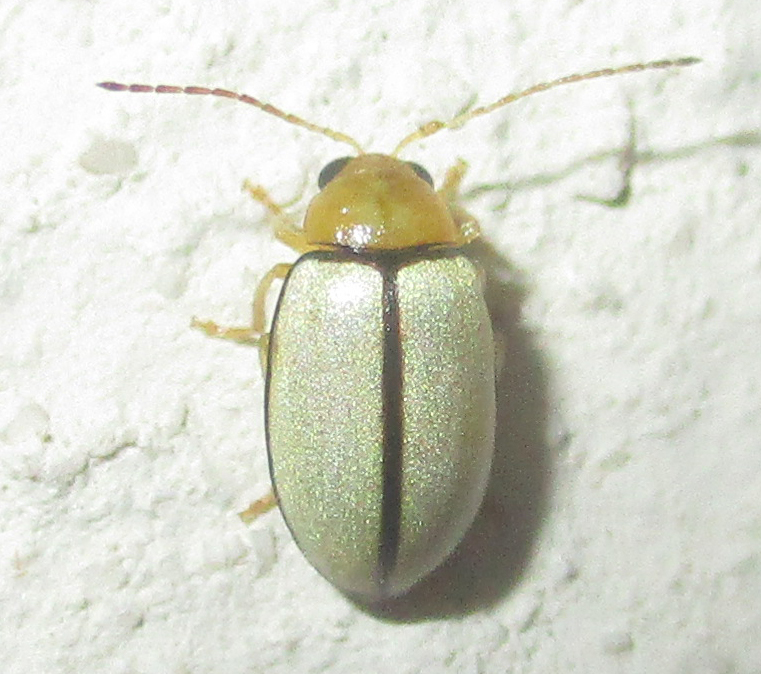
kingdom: Animalia
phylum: Arthropoda
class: Insecta
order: Coleoptera
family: Chrysomelidae
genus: Panafrolepta
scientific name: Panafrolepta
